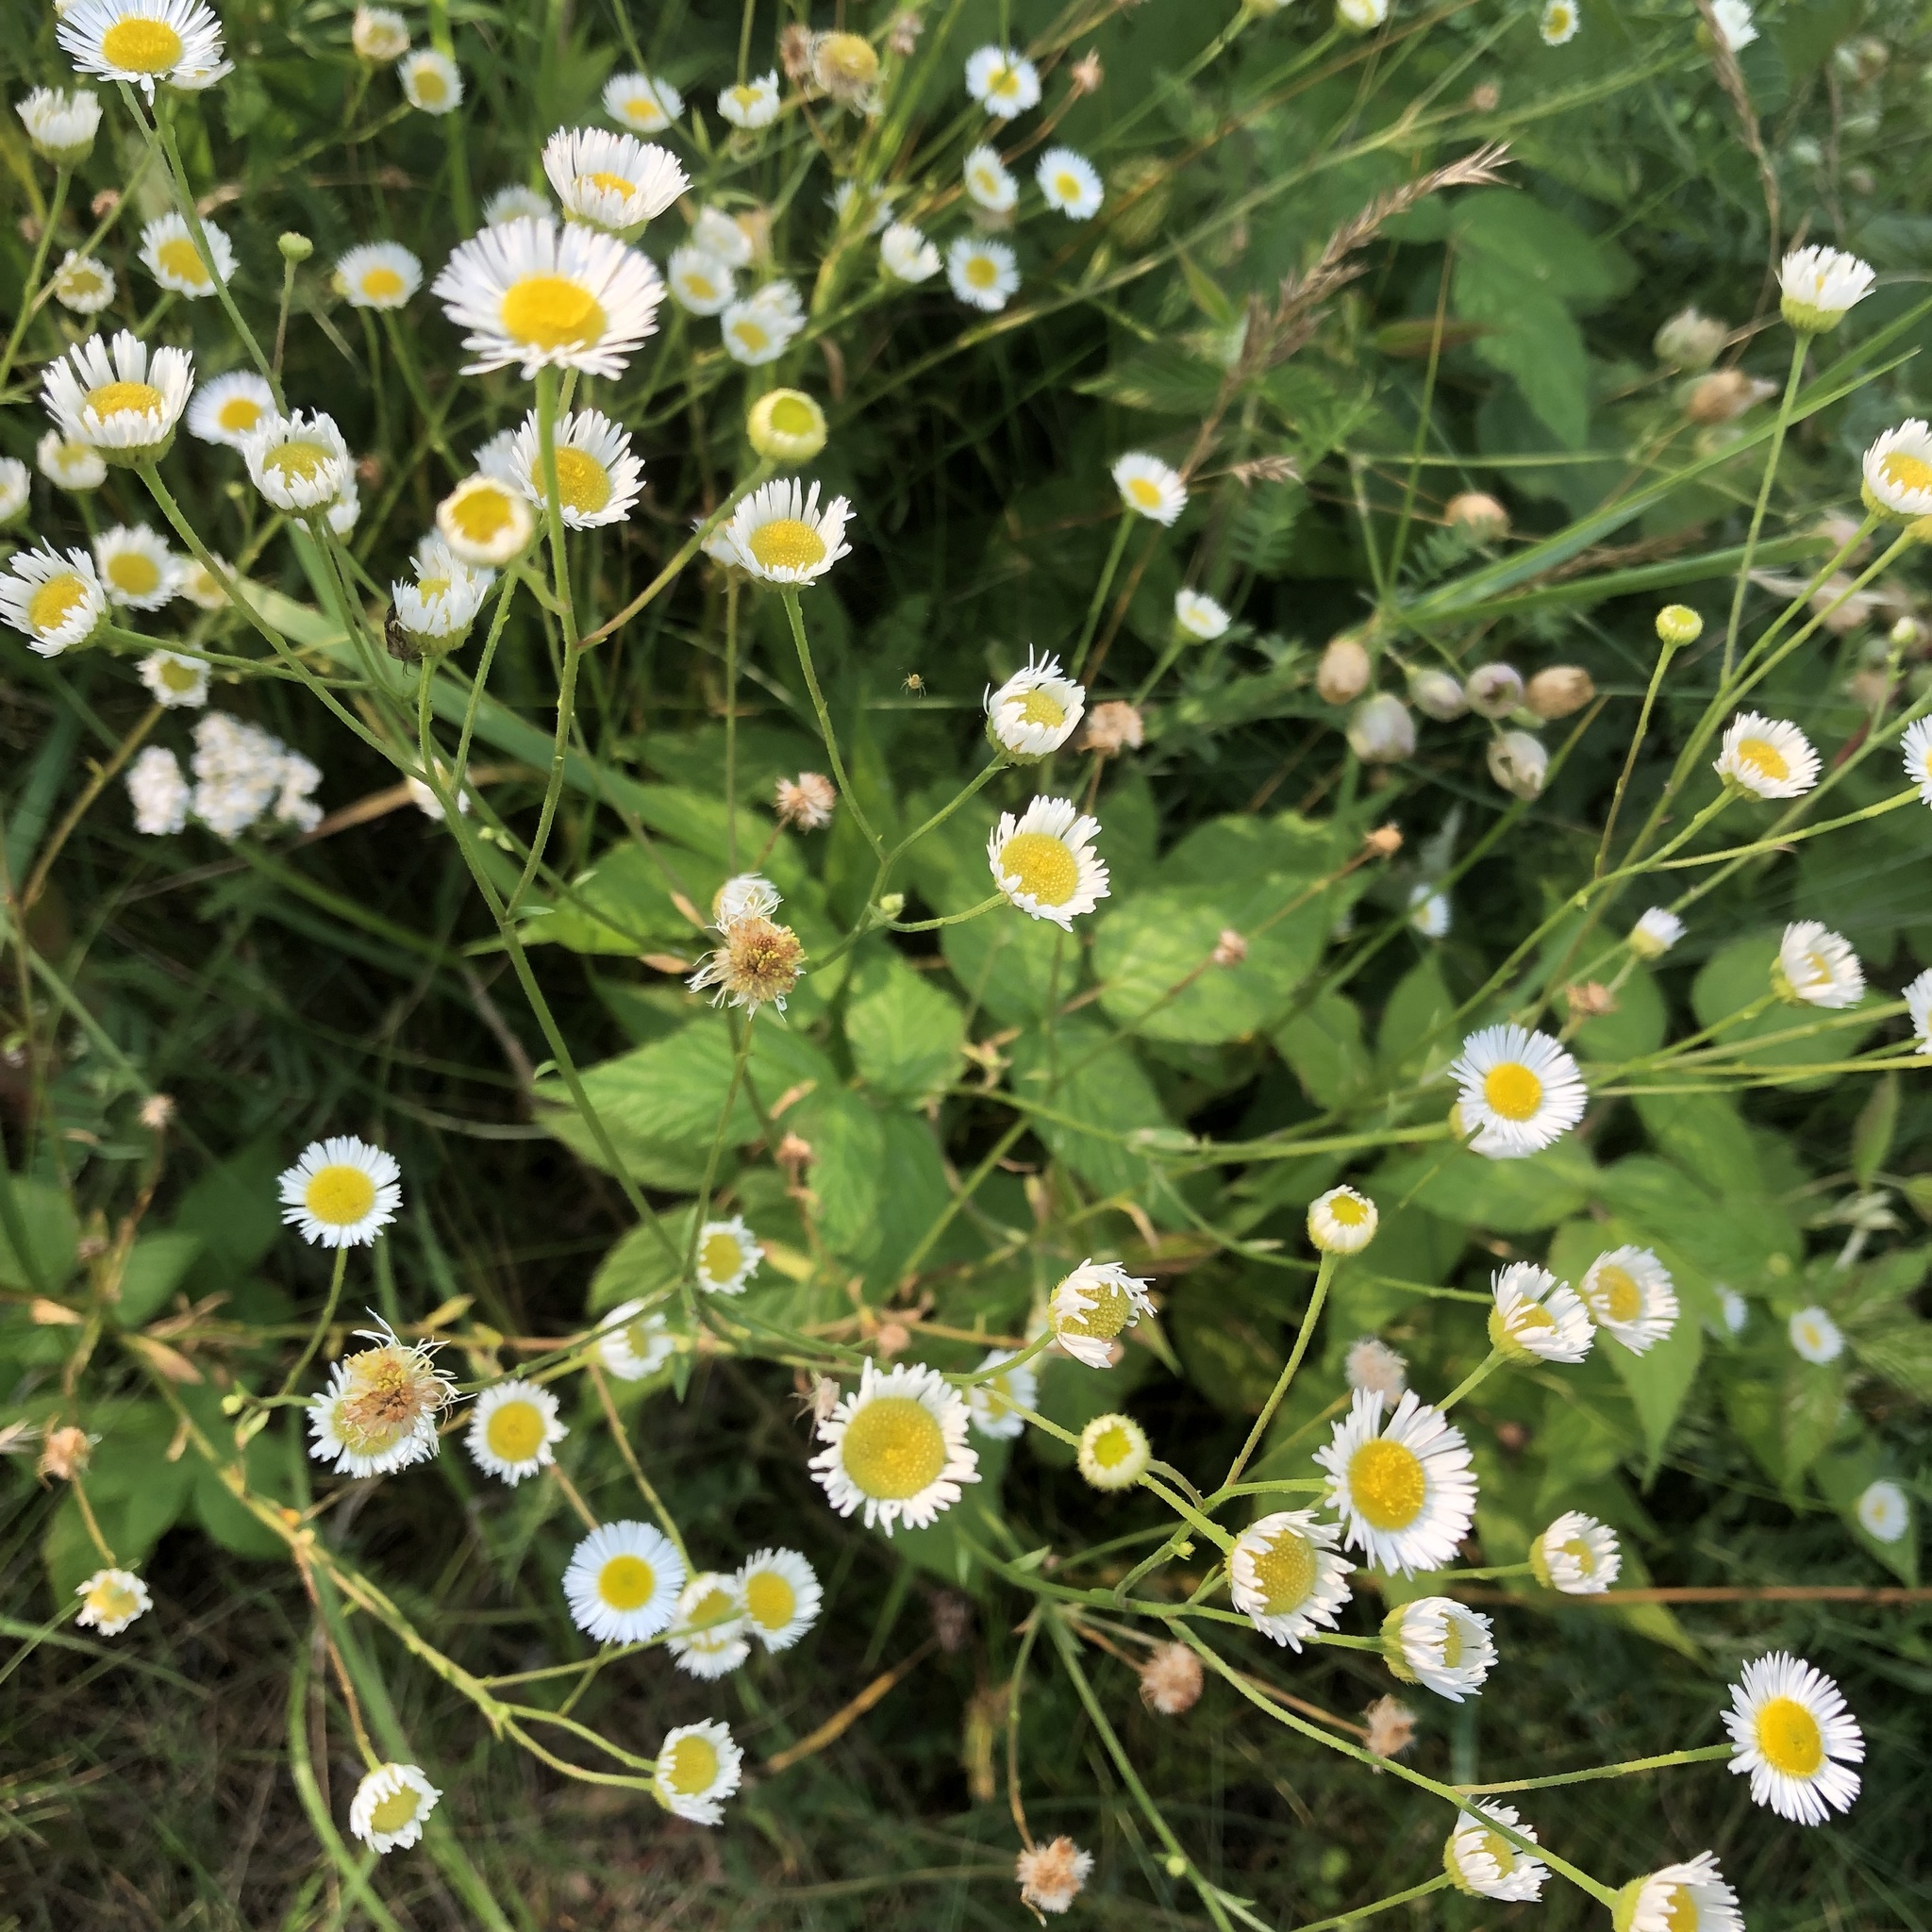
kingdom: Plantae
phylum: Tracheophyta
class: Magnoliopsida
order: Asterales
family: Asteraceae
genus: Erigeron
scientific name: Erigeron strigosus
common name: Common eastern fleabane
